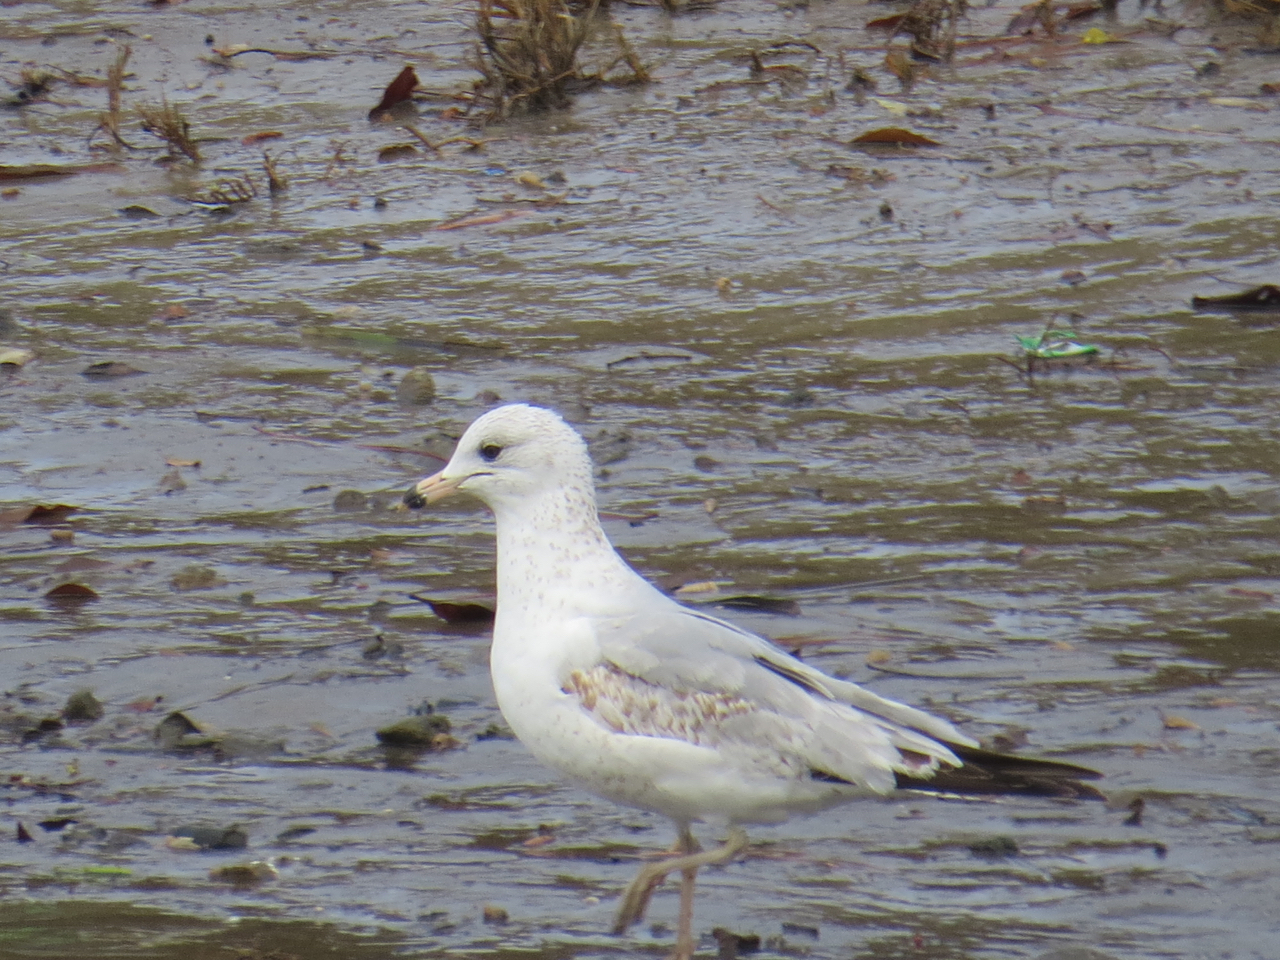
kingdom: Animalia
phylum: Chordata
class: Aves
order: Charadriiformes
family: Laridae
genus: Larus
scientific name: Larus delawarensis
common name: Ring-billed gull
